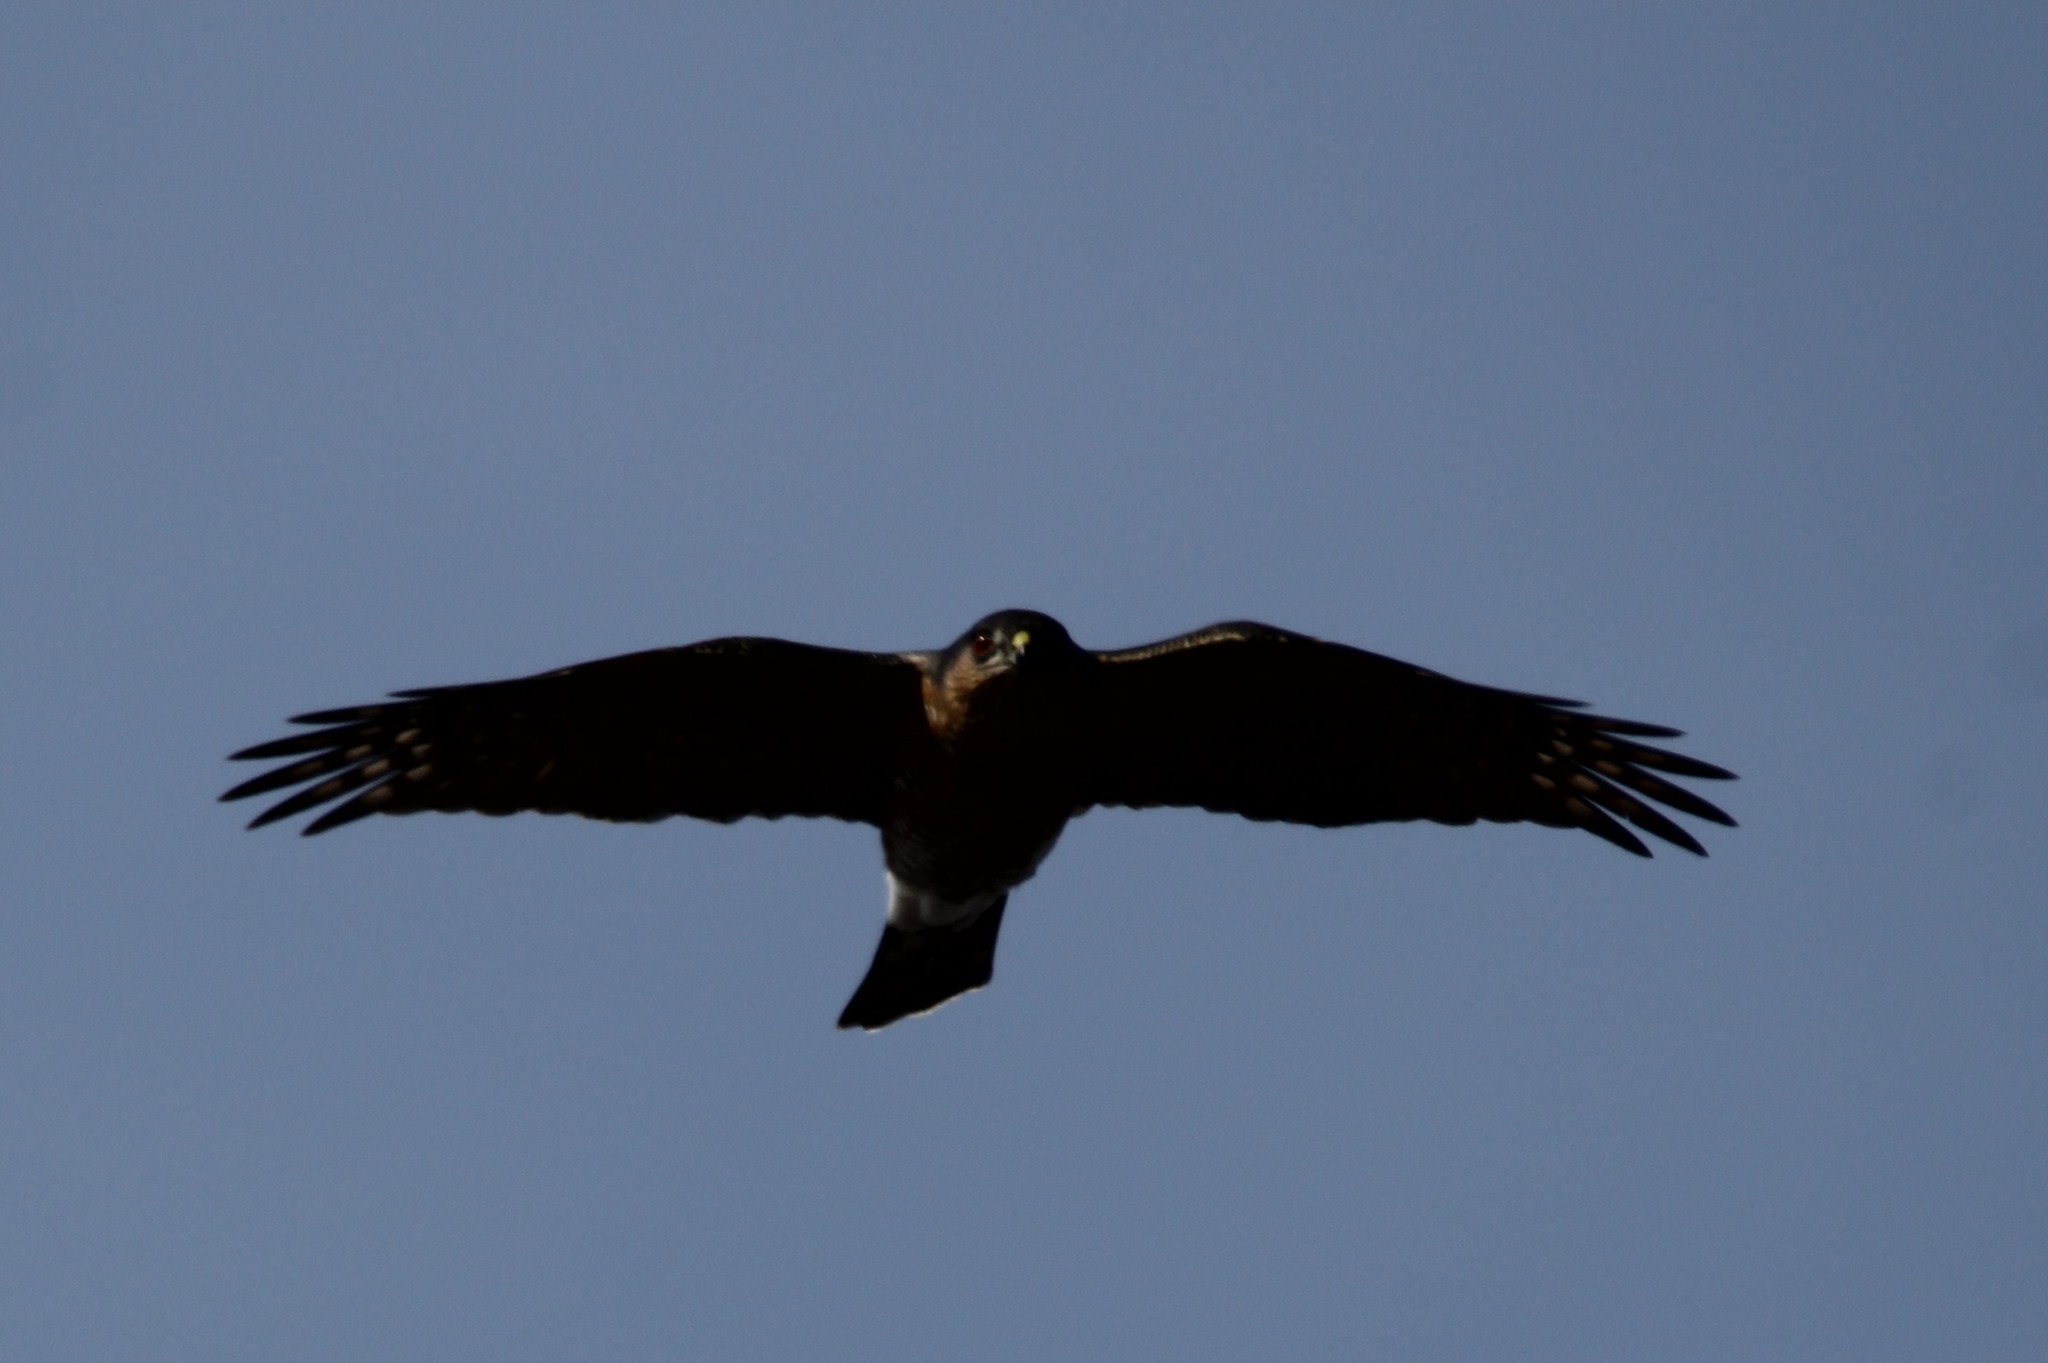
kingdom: Animalia
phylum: Chordata
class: Aves
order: Accipitriformes
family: Accipitridae
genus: Accipiter
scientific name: Accipiter cooperii
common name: Cooper's hawk
